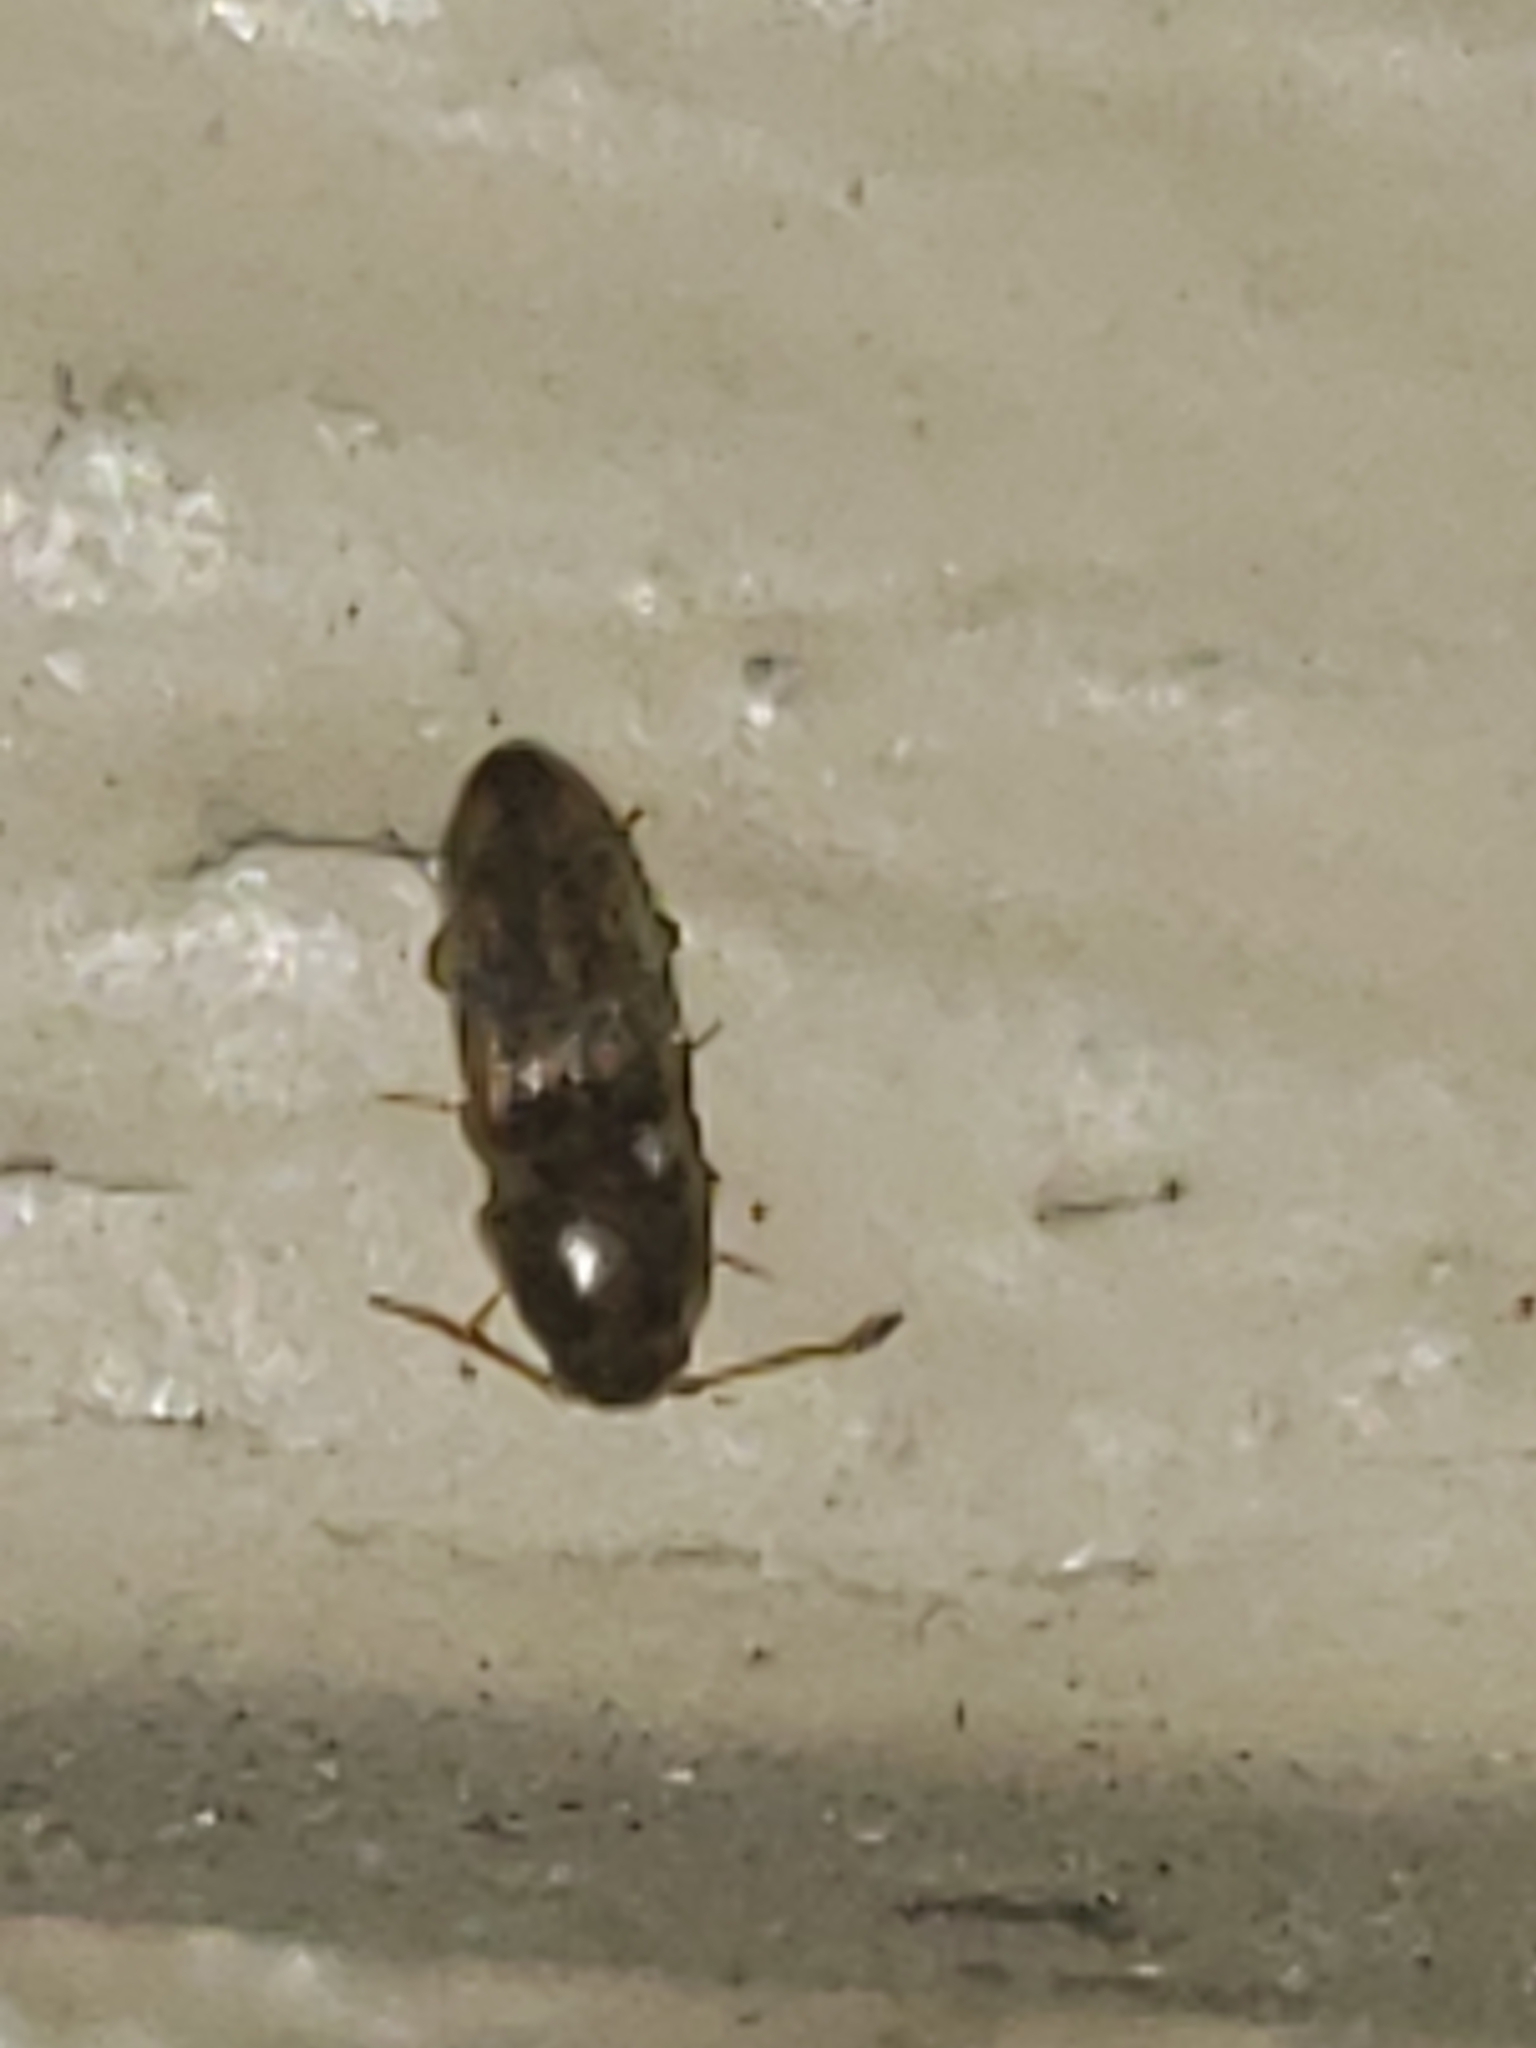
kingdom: Animalia
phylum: Arthropoda
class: Insecta
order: Coleoptera
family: Elateridae
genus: Monocrepidius
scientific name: Monocrepidius bellus
